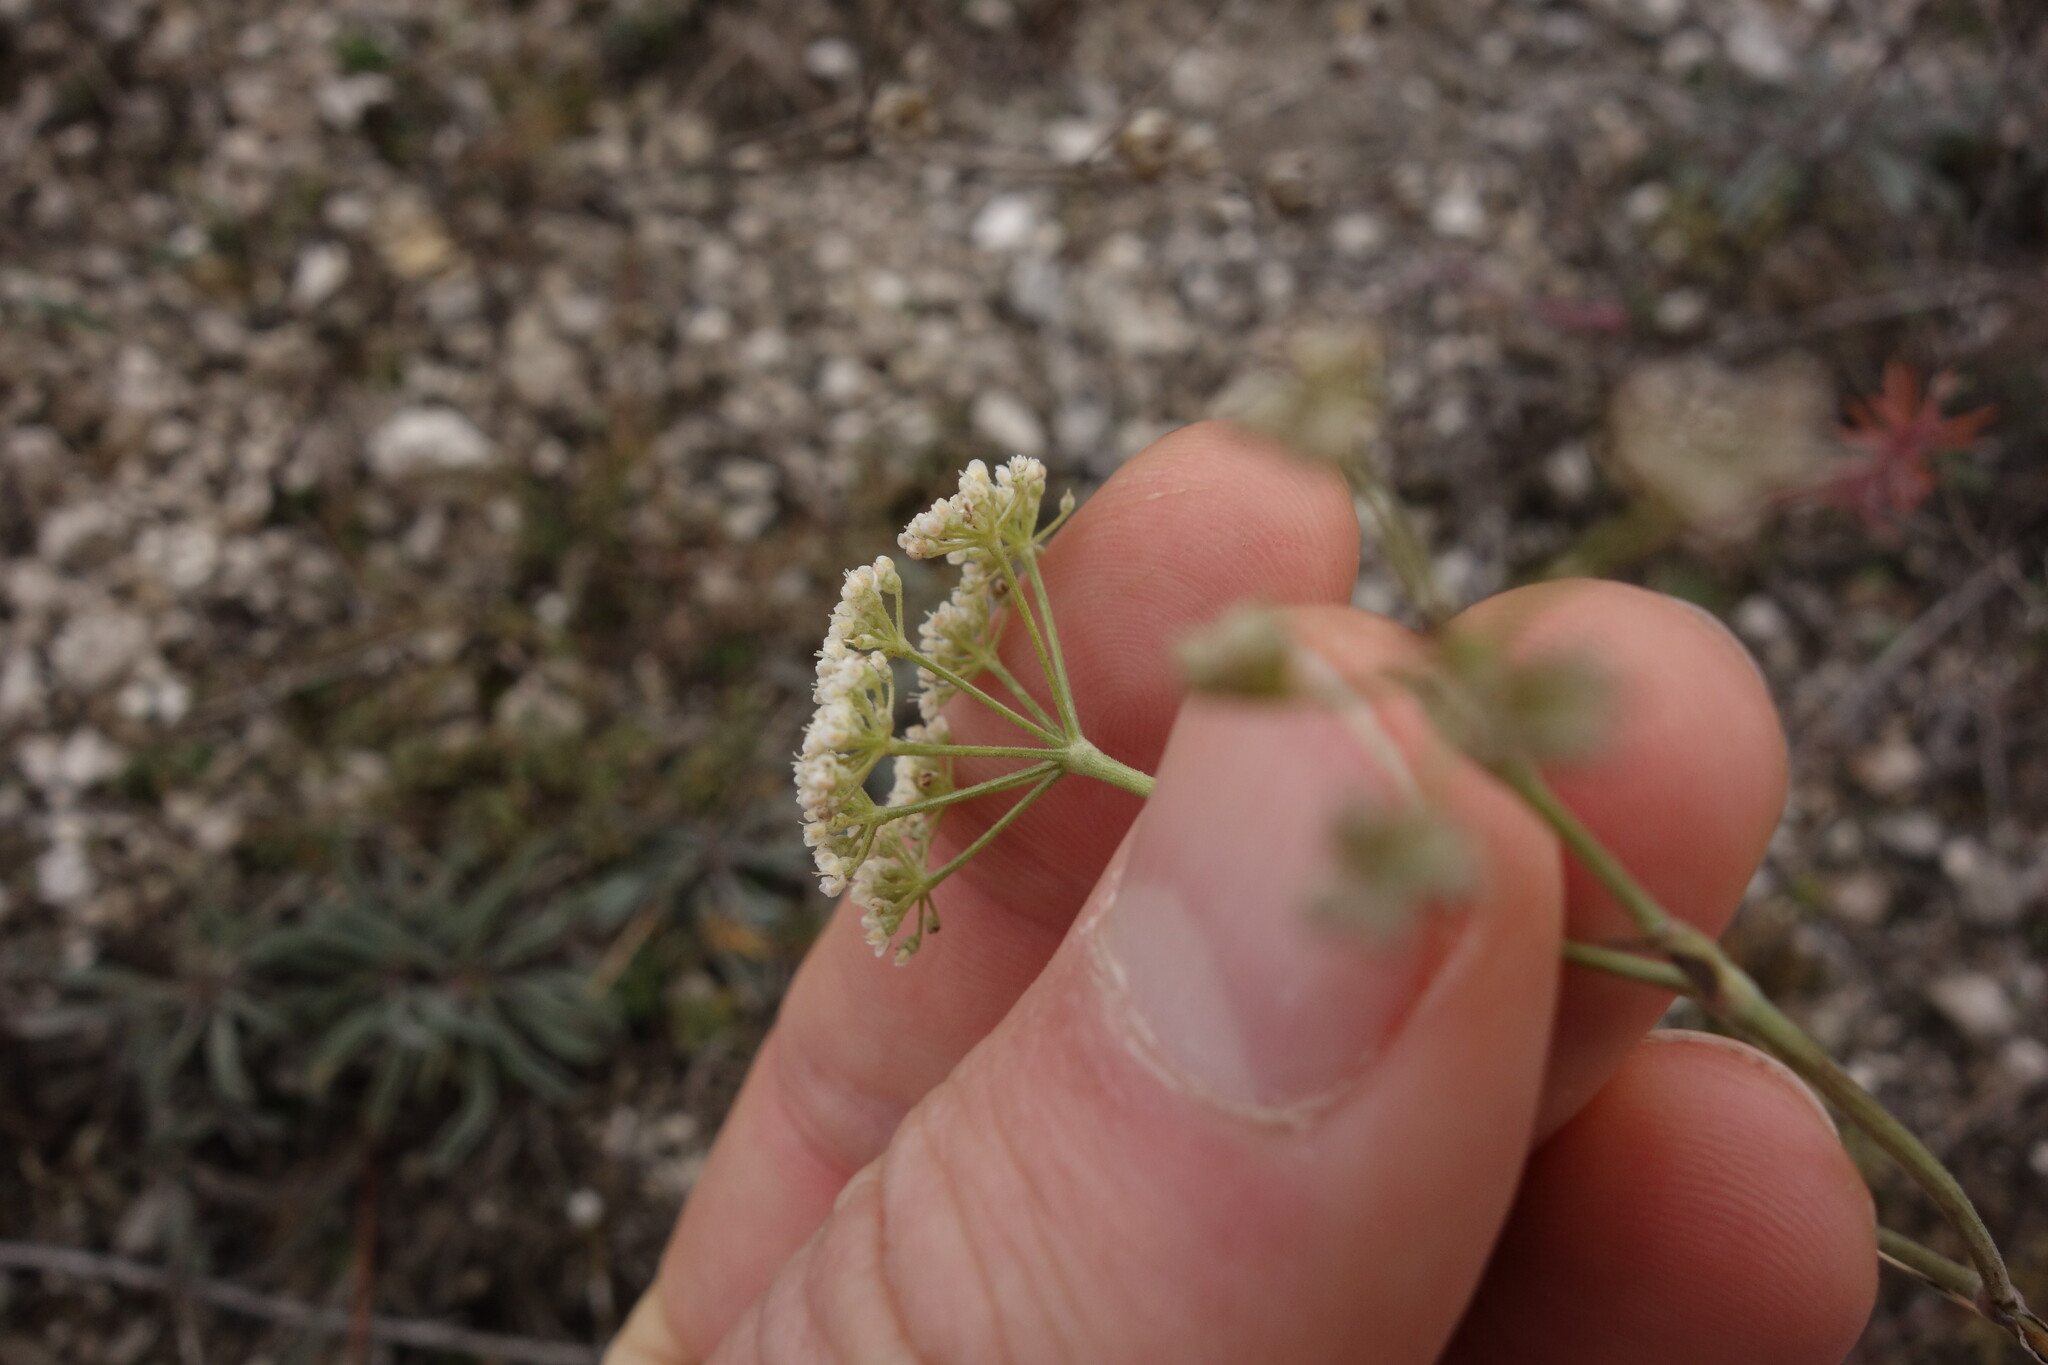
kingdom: Plantae
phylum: Tracheophyta
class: Magnoliopsida
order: Apiales
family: Apiaceae
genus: Pimpinella
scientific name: Pimpinella tragium
